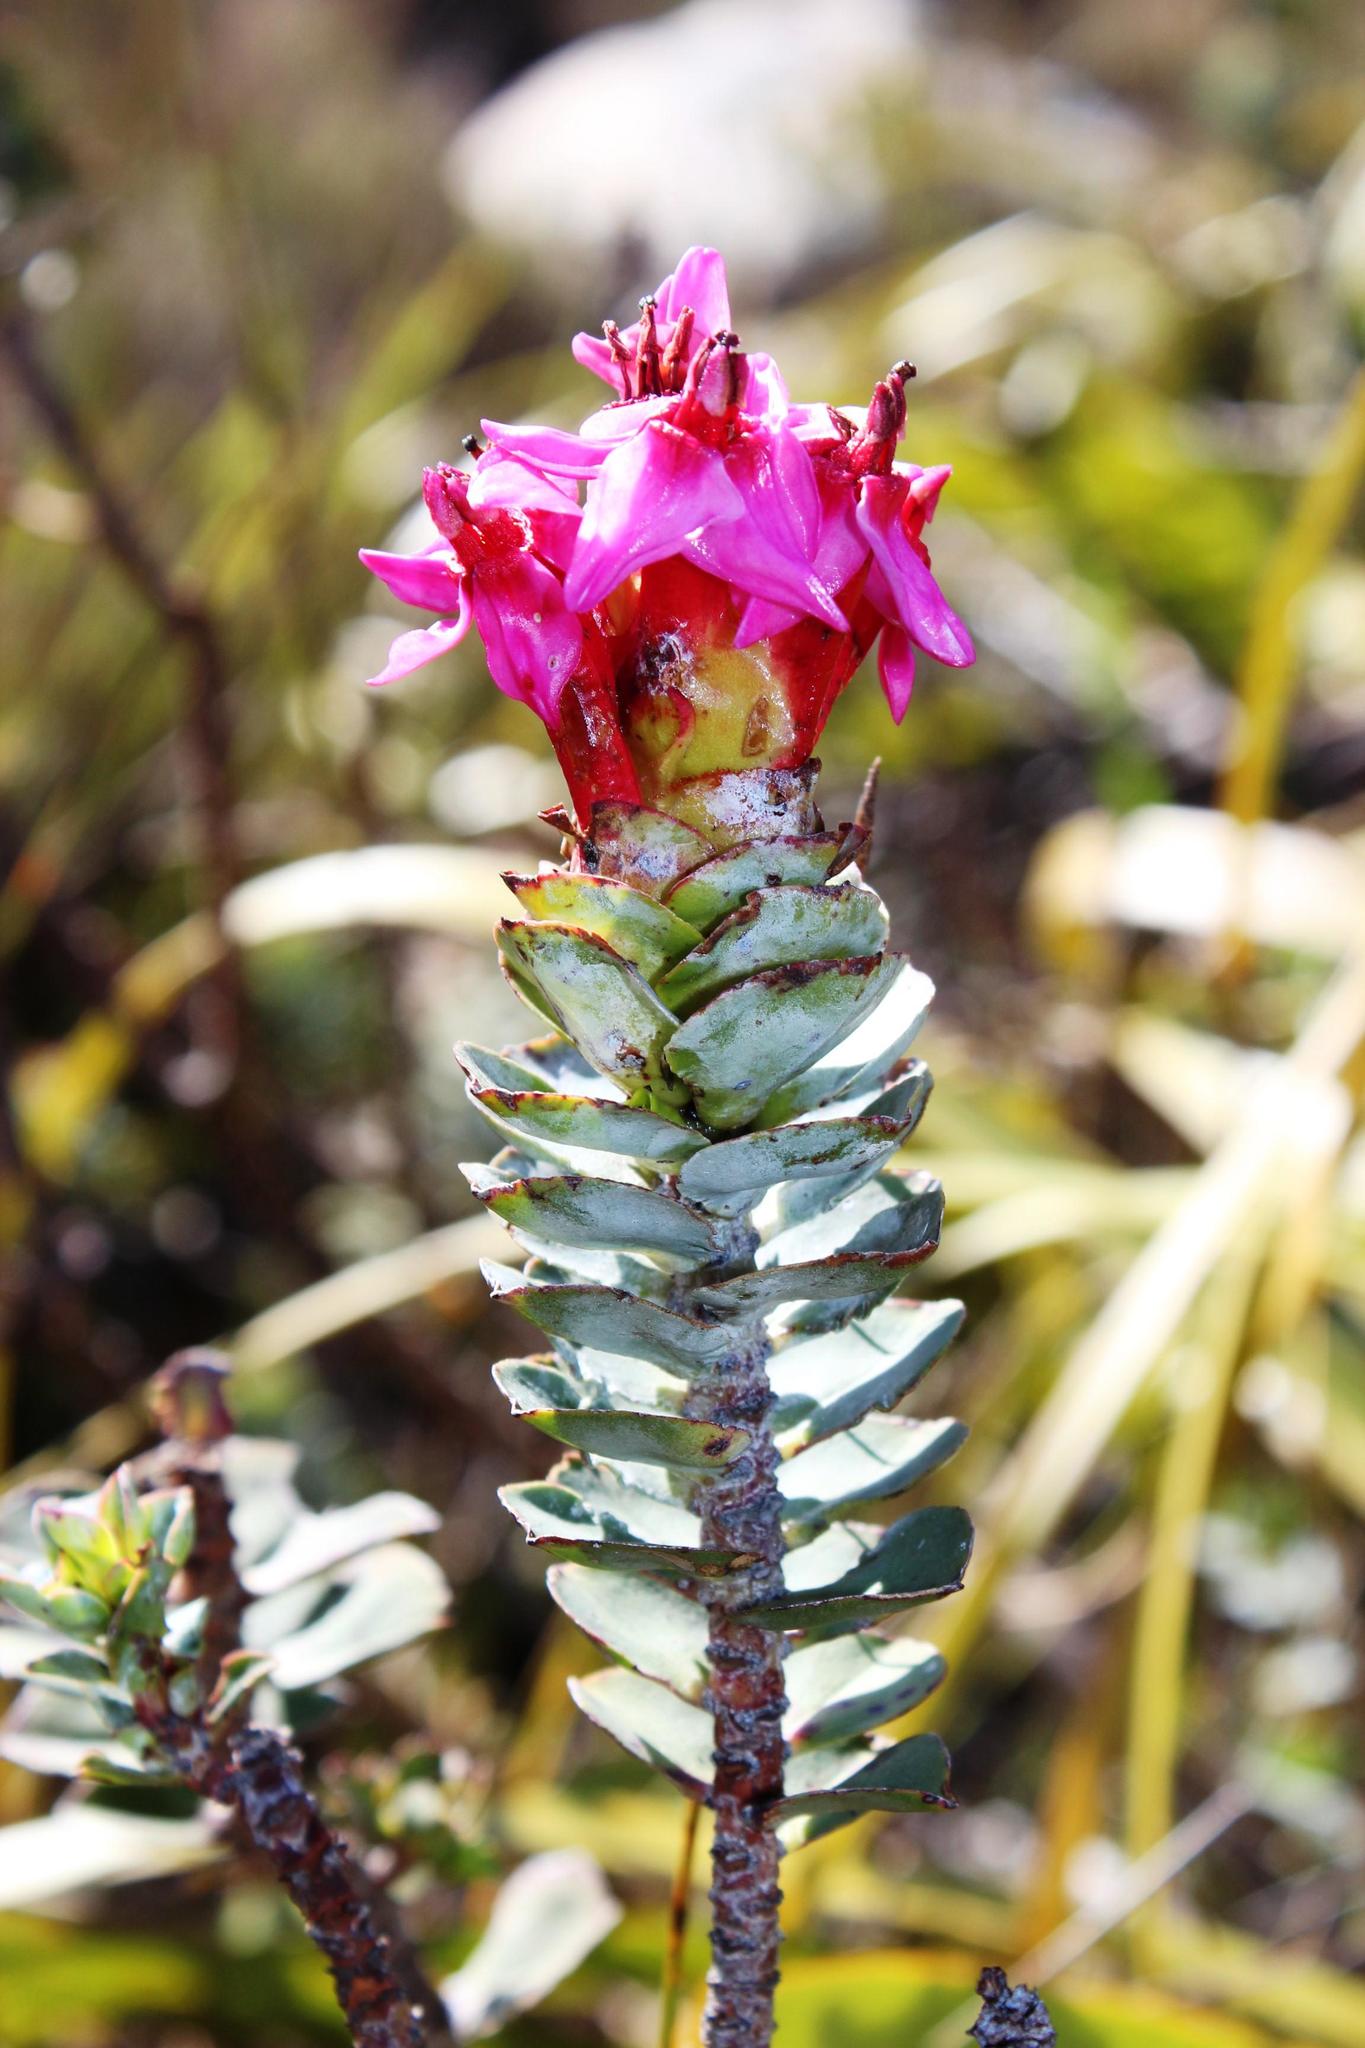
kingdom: Plantae
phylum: Tracheophyta
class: Magnoliopsida
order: Myrtales
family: Penaeaceae
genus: Saltera
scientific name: Saltera sarcocolla
